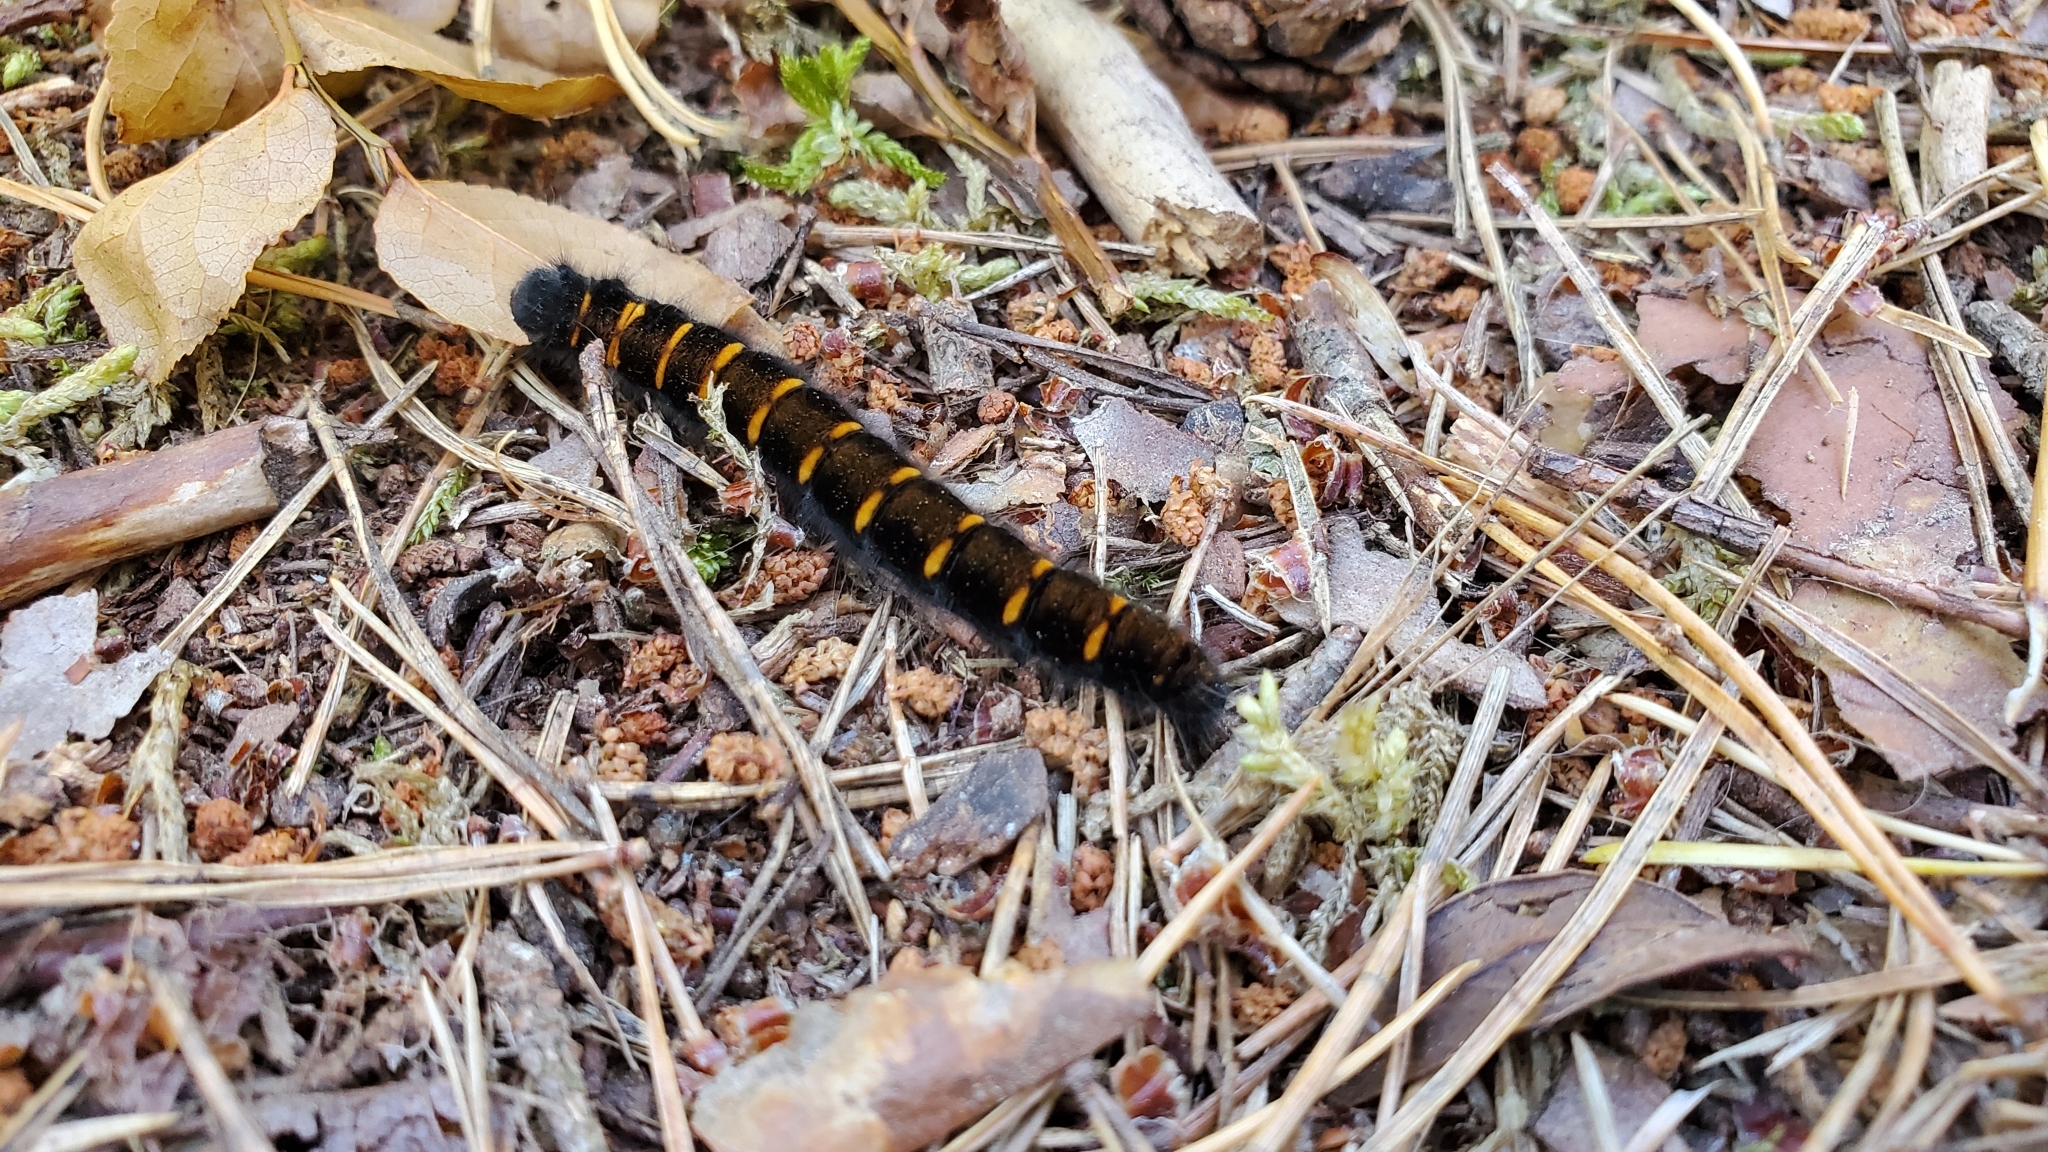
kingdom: Animalia
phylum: Arthropoda
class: Insecta
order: Lepidoptera
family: Lasiocampidae
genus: Macrothylacia
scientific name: Macrothylacia rubi
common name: Fox moth
